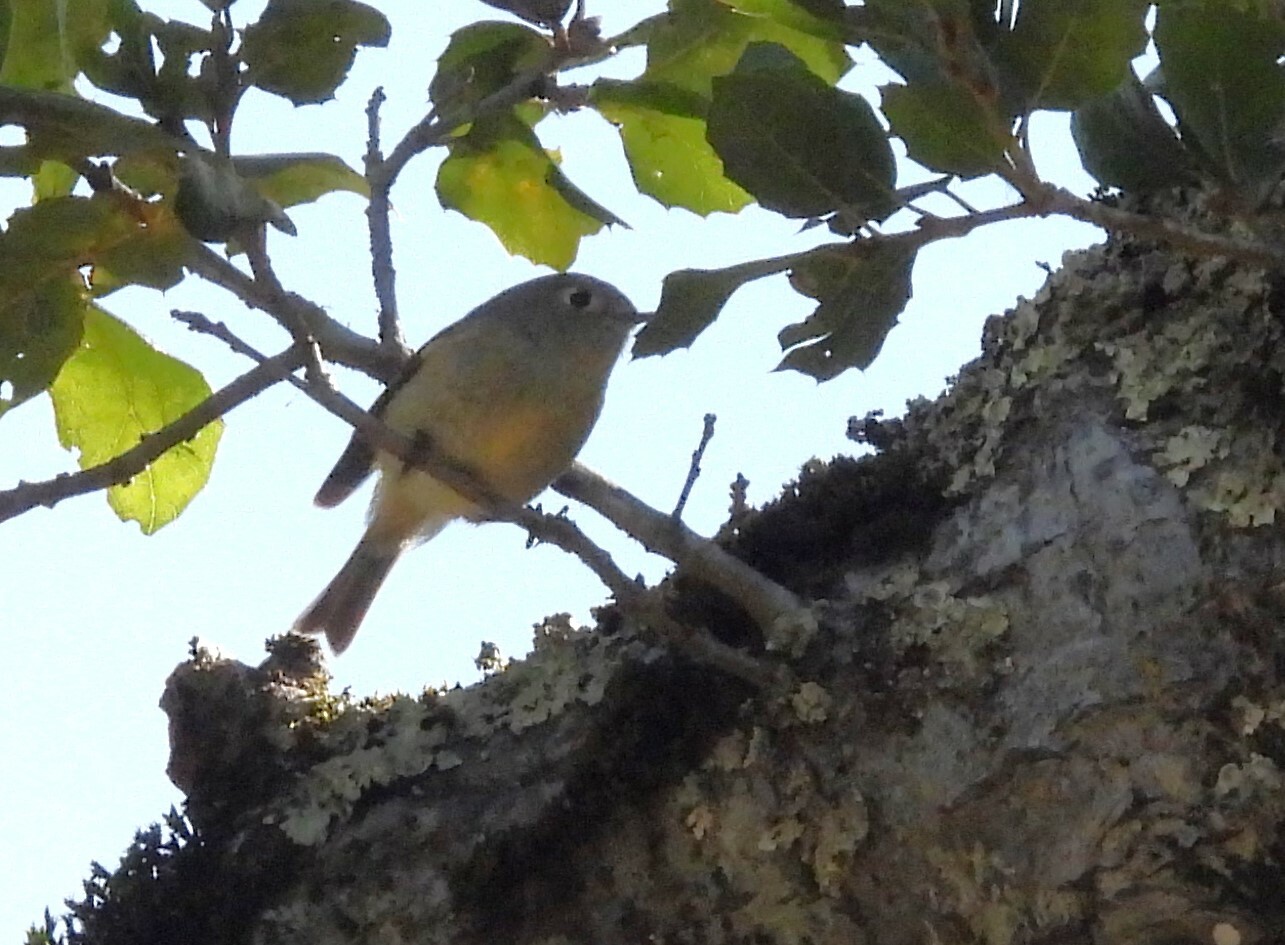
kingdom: Animalia
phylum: Chordata
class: Aves
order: Passeriformes
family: Regulidae
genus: Regulus
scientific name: Regulus calendula
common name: Ruby-crowned kinglet
